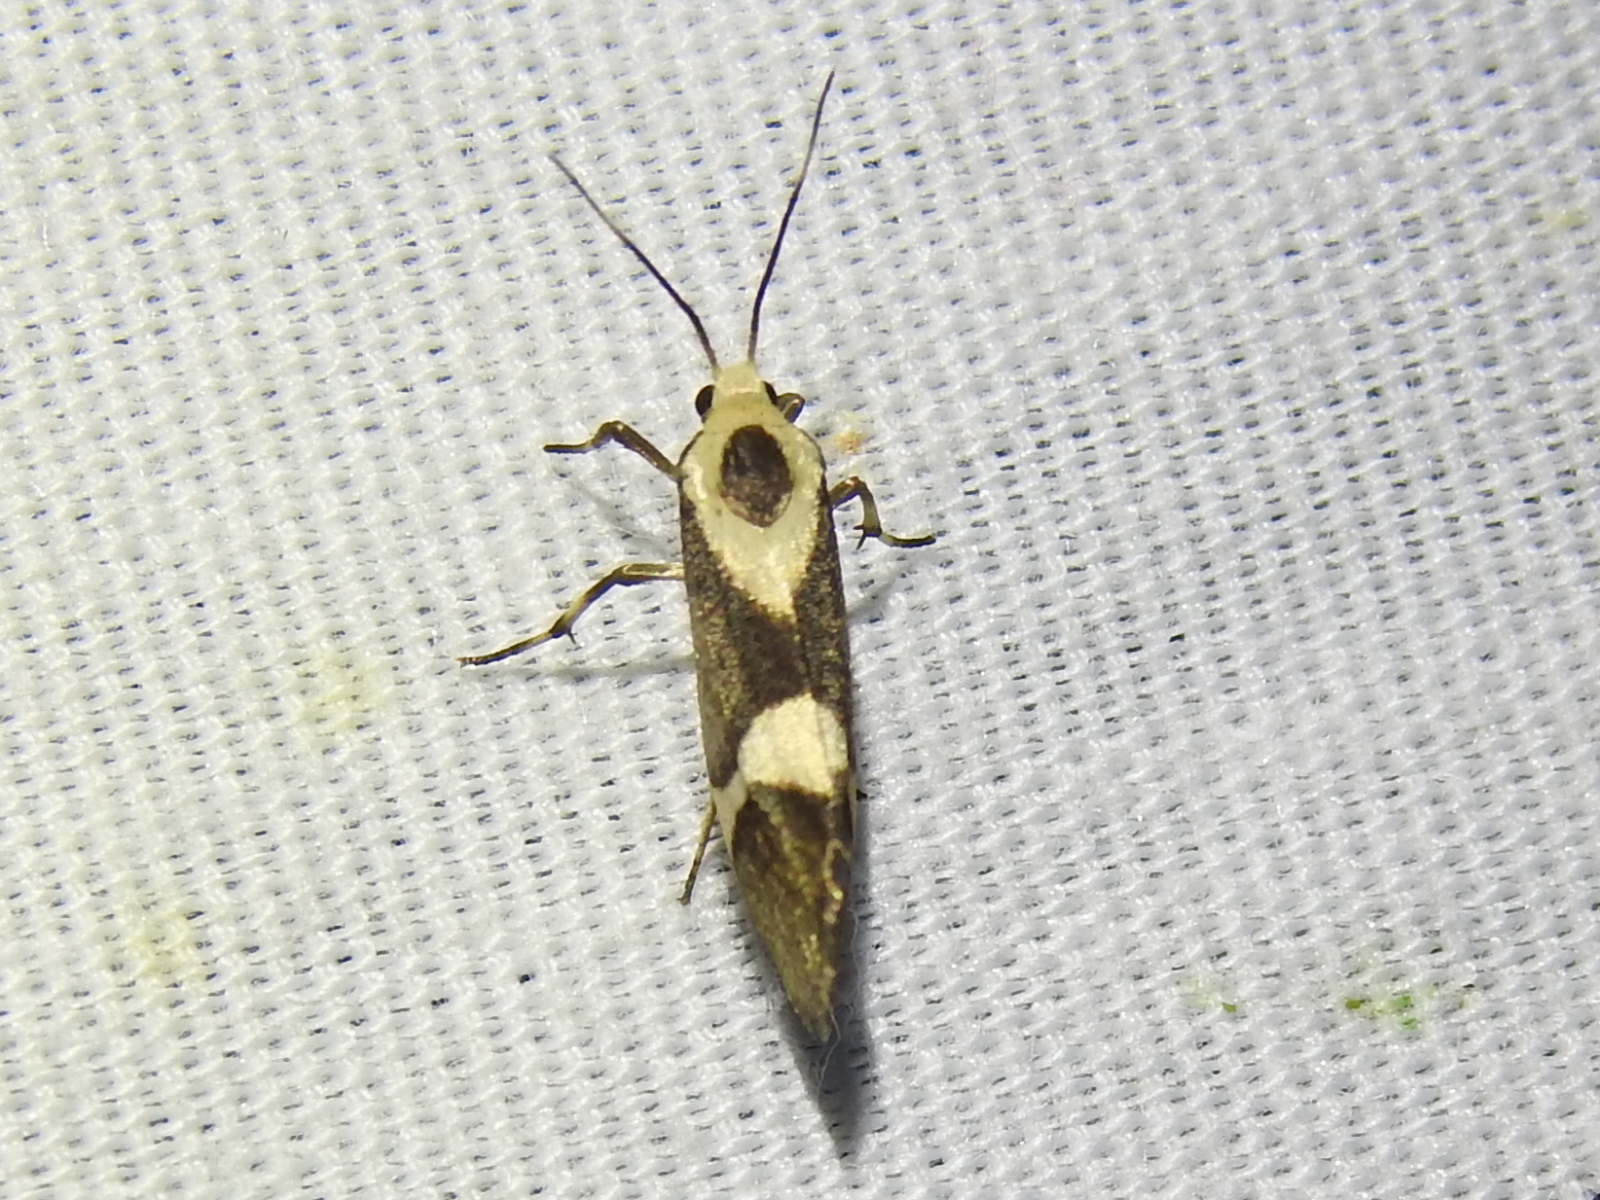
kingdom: Animalia
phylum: Arthropoda
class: Insecta
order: Lepidoptera
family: Erebidae
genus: Cisthene
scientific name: Cisthene subrufa
